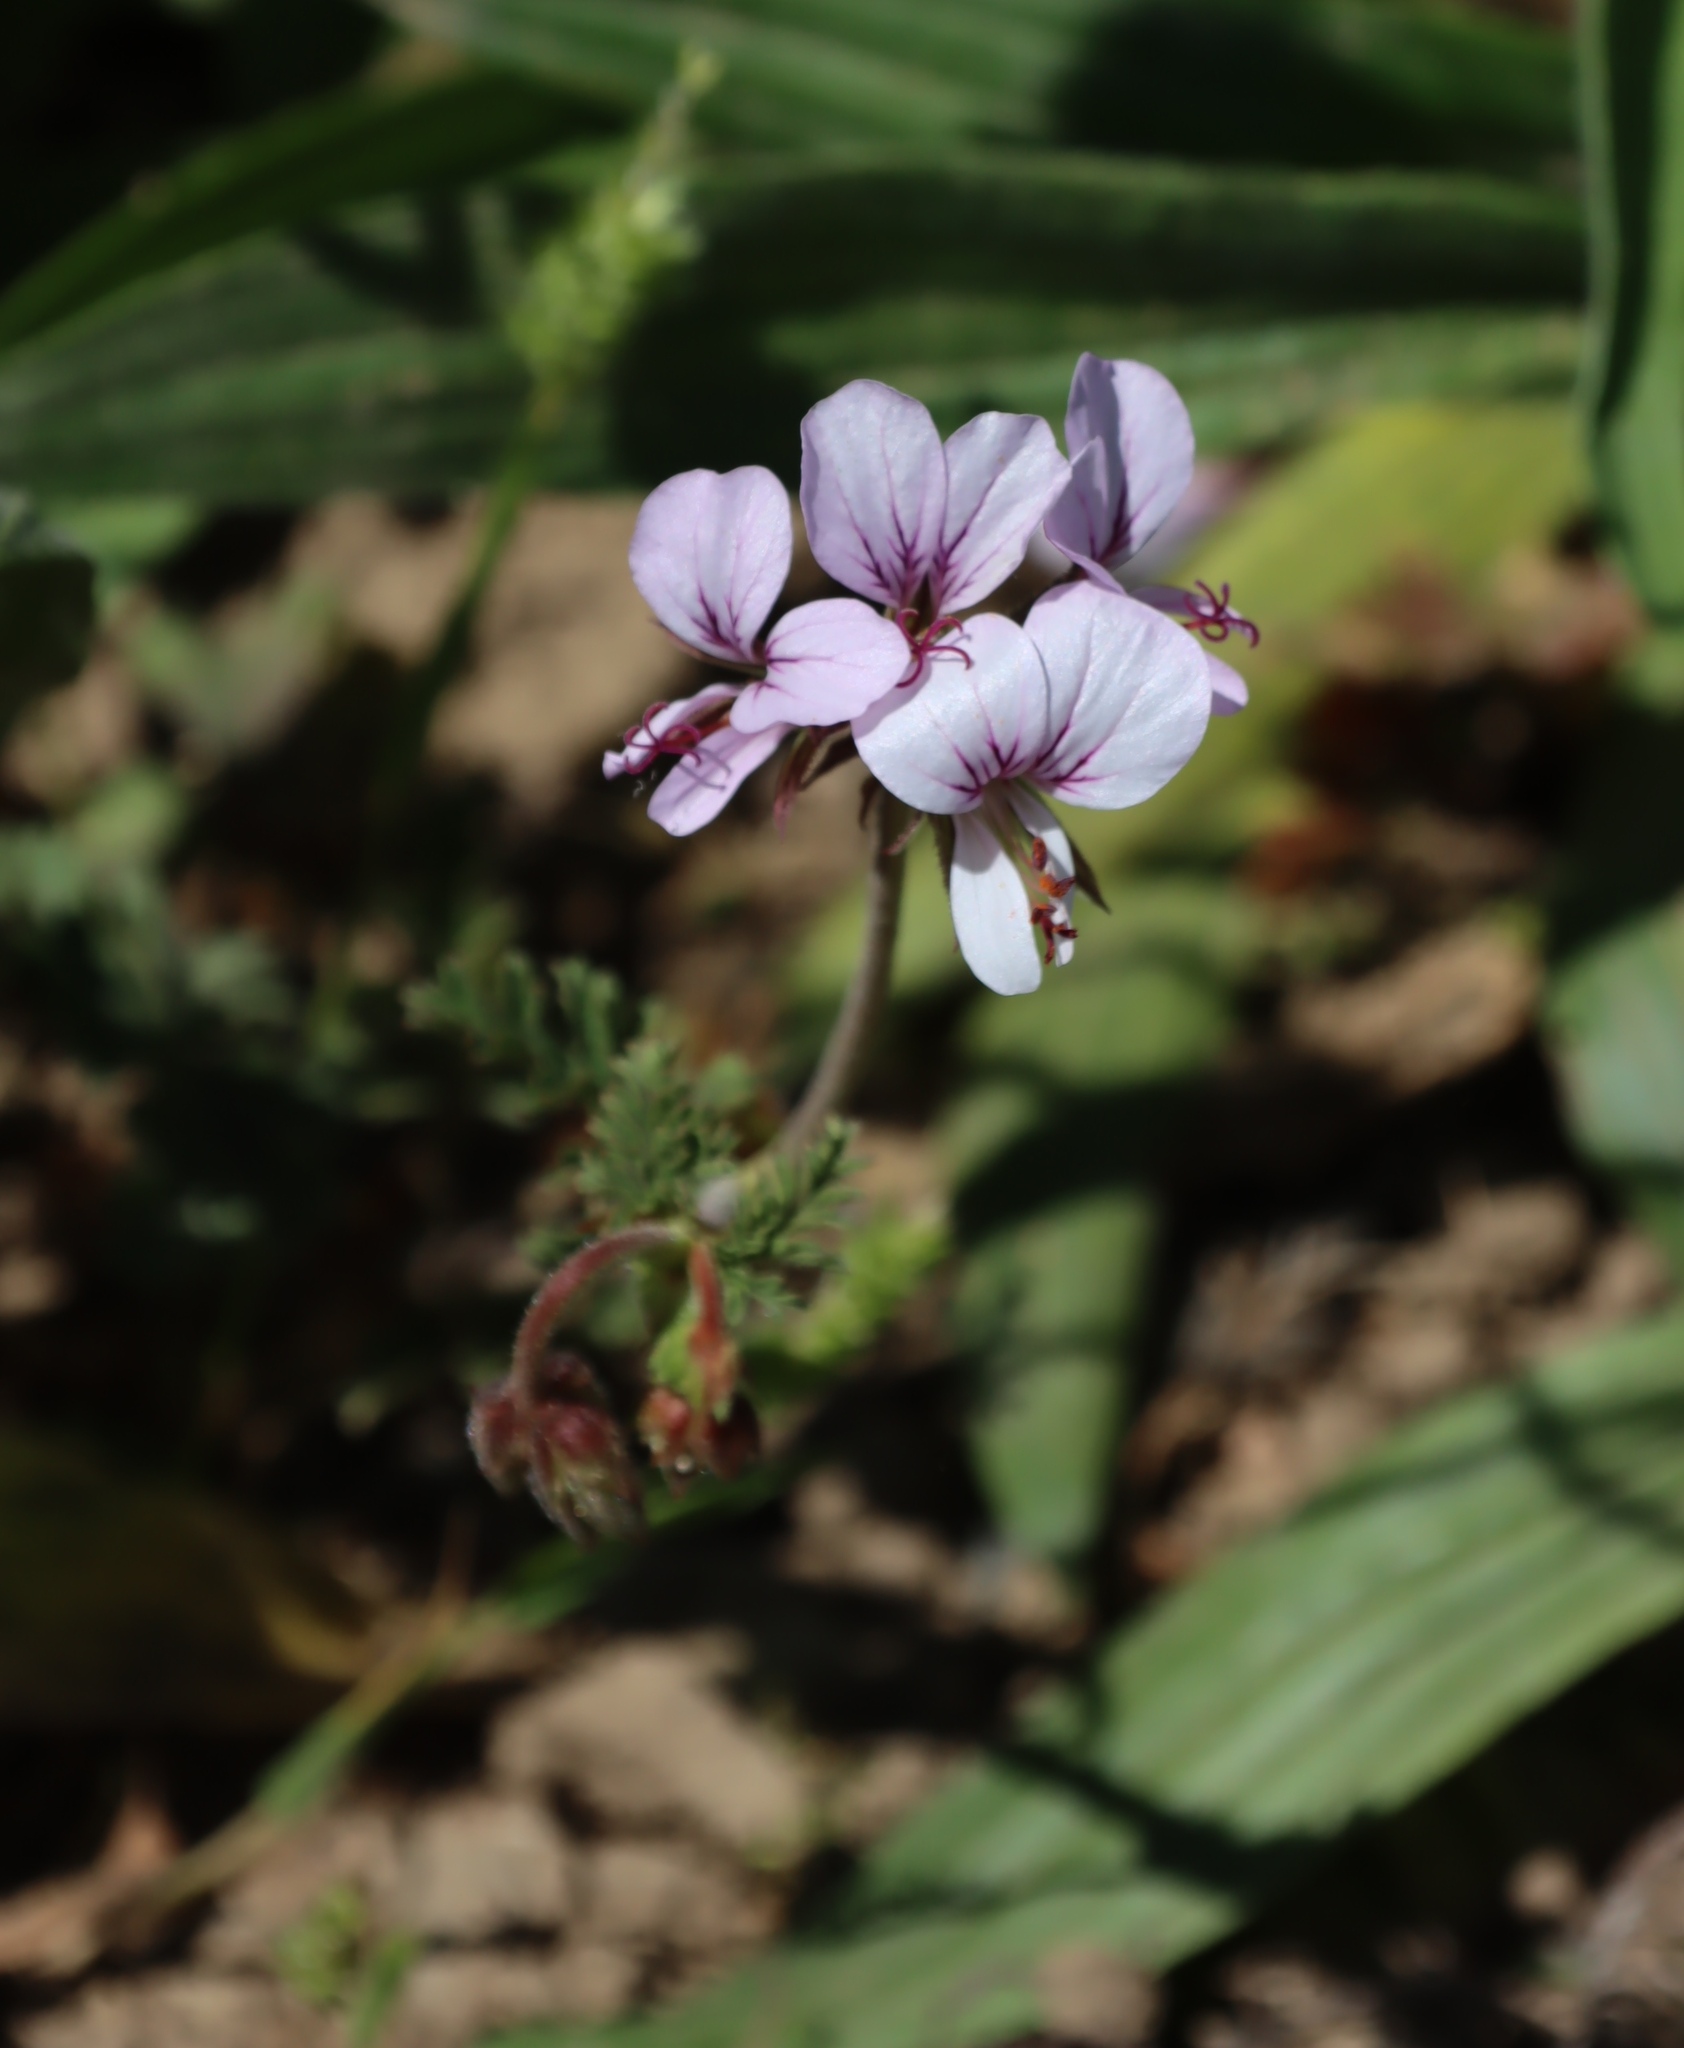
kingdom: Plantae
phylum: Tracheophyta
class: Magnoliopsida
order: Geraniales
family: Geraniaceae
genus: Pelargonium
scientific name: Pelargonium myrrhifolium
